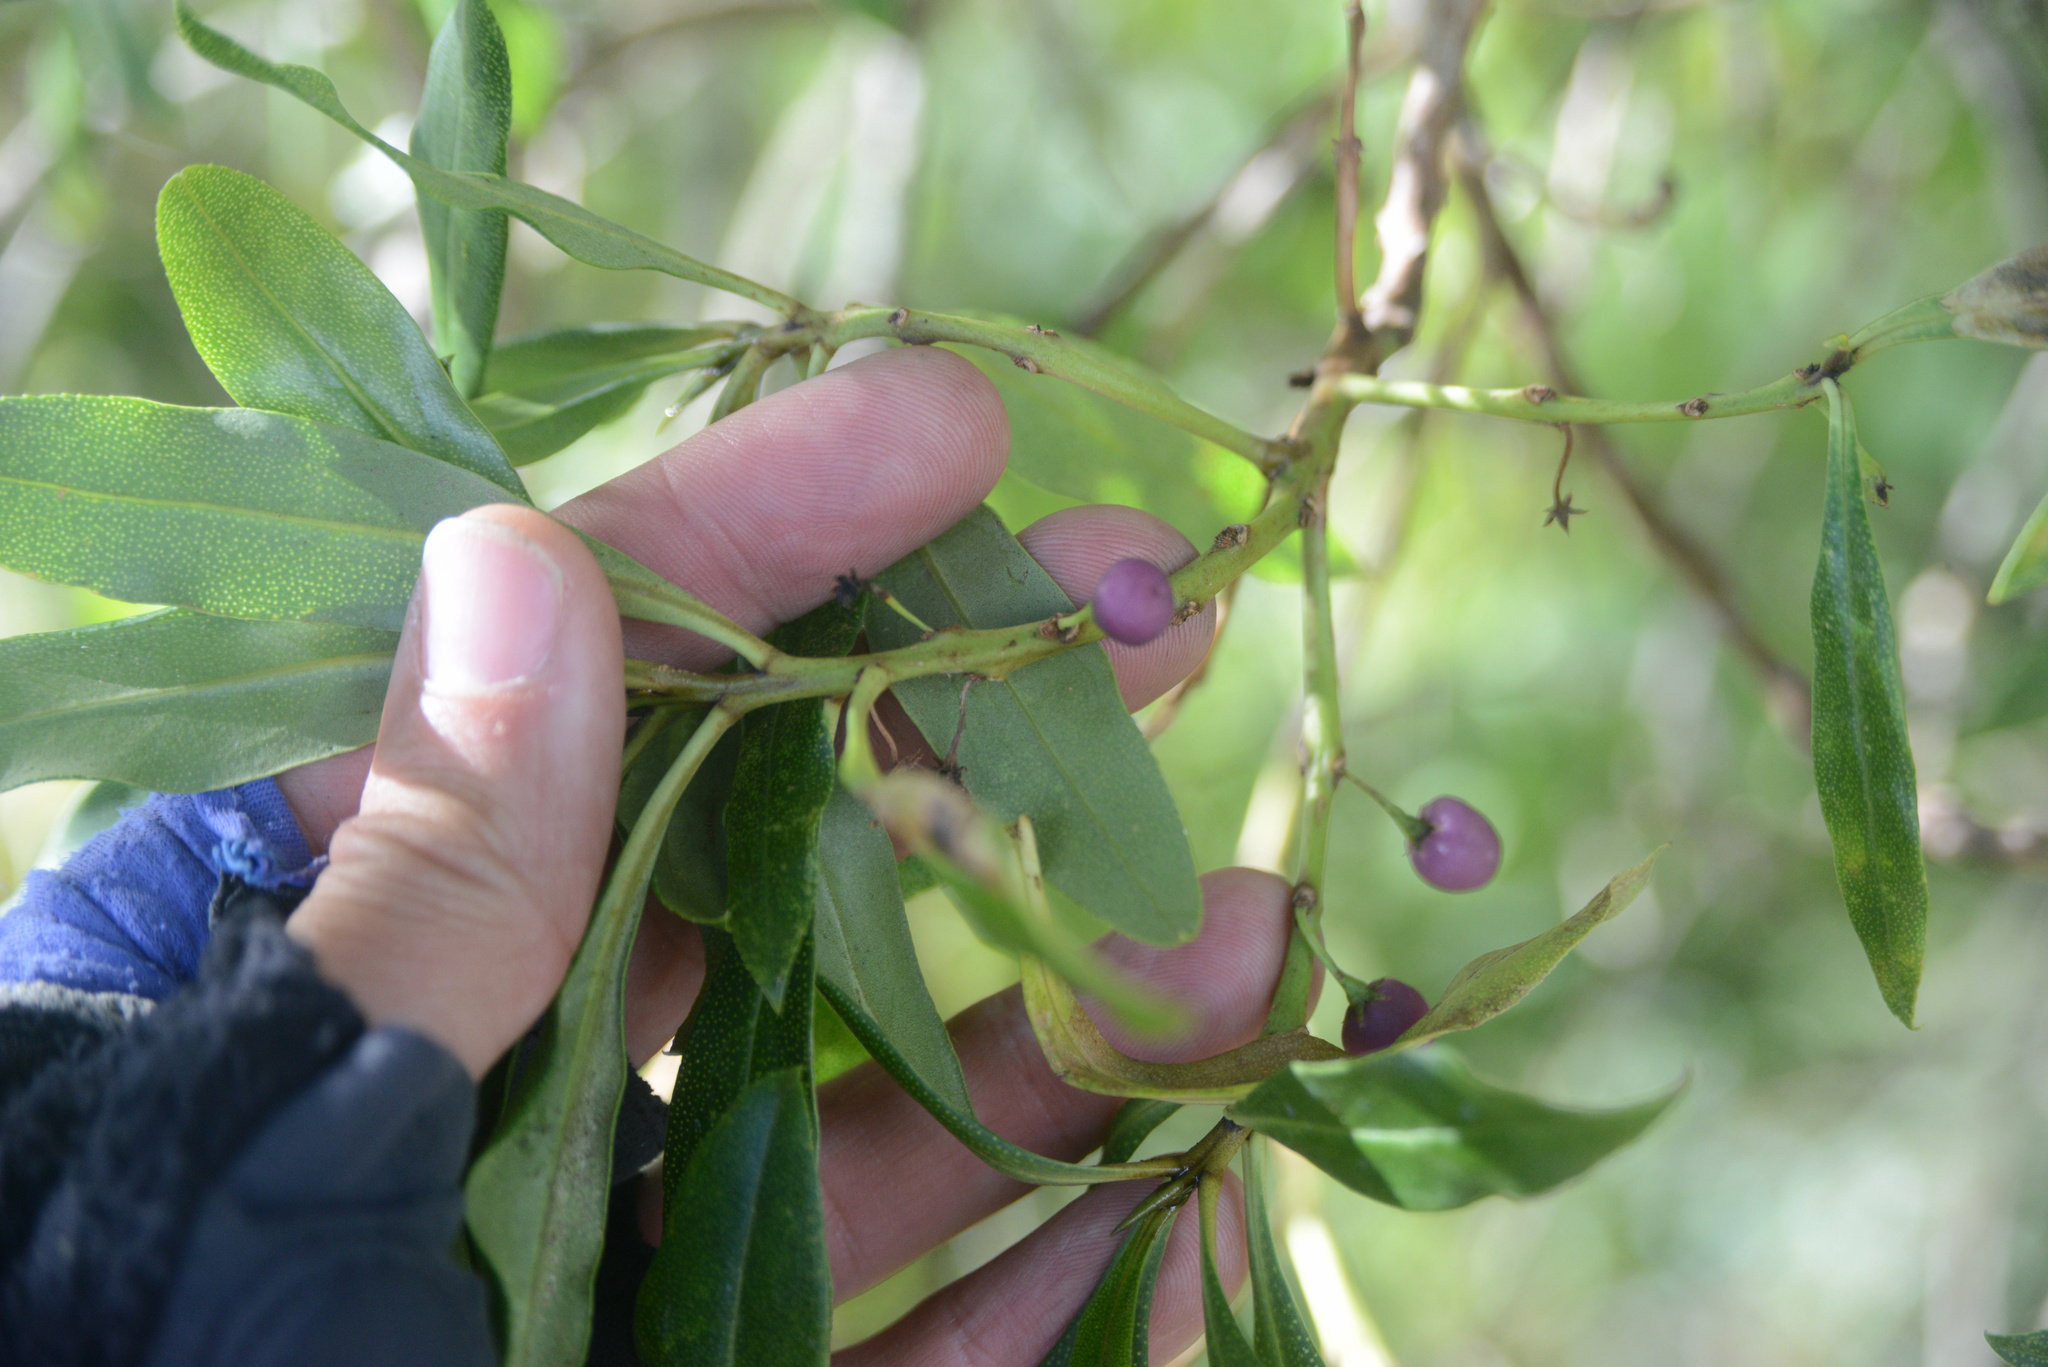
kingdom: Plantae
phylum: Tracheophyta
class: Magnoliopsida
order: Lamiales
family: Scrophulariaceae
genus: Myoporum
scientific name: Myoporum laetum
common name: Ngaio tree
